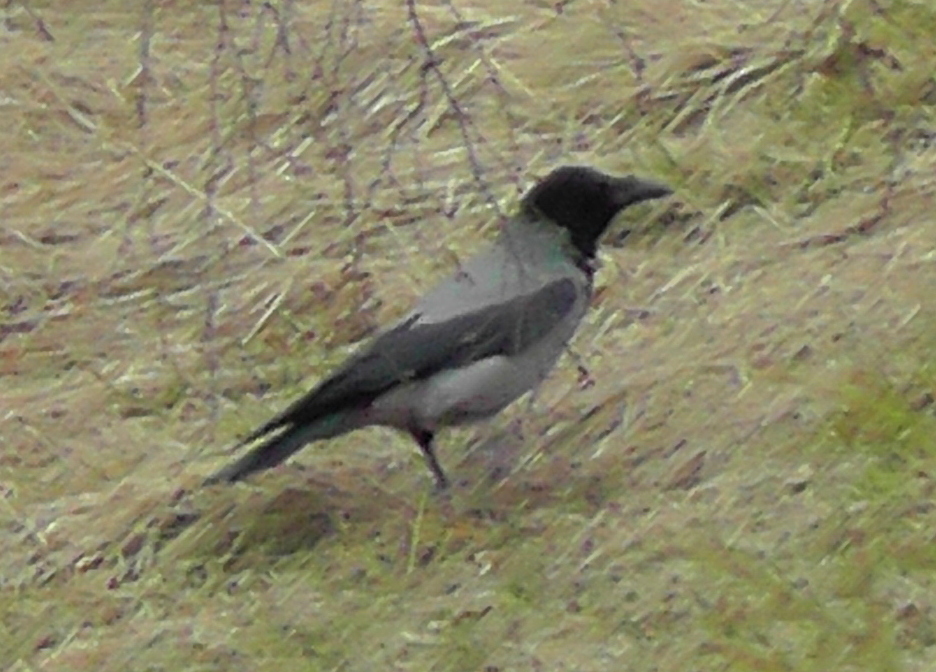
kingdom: Animalia
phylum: Chordata
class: Aves
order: Passeriformes
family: Corvidae
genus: Corvus
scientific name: Corvus cornix
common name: Hooded crow
